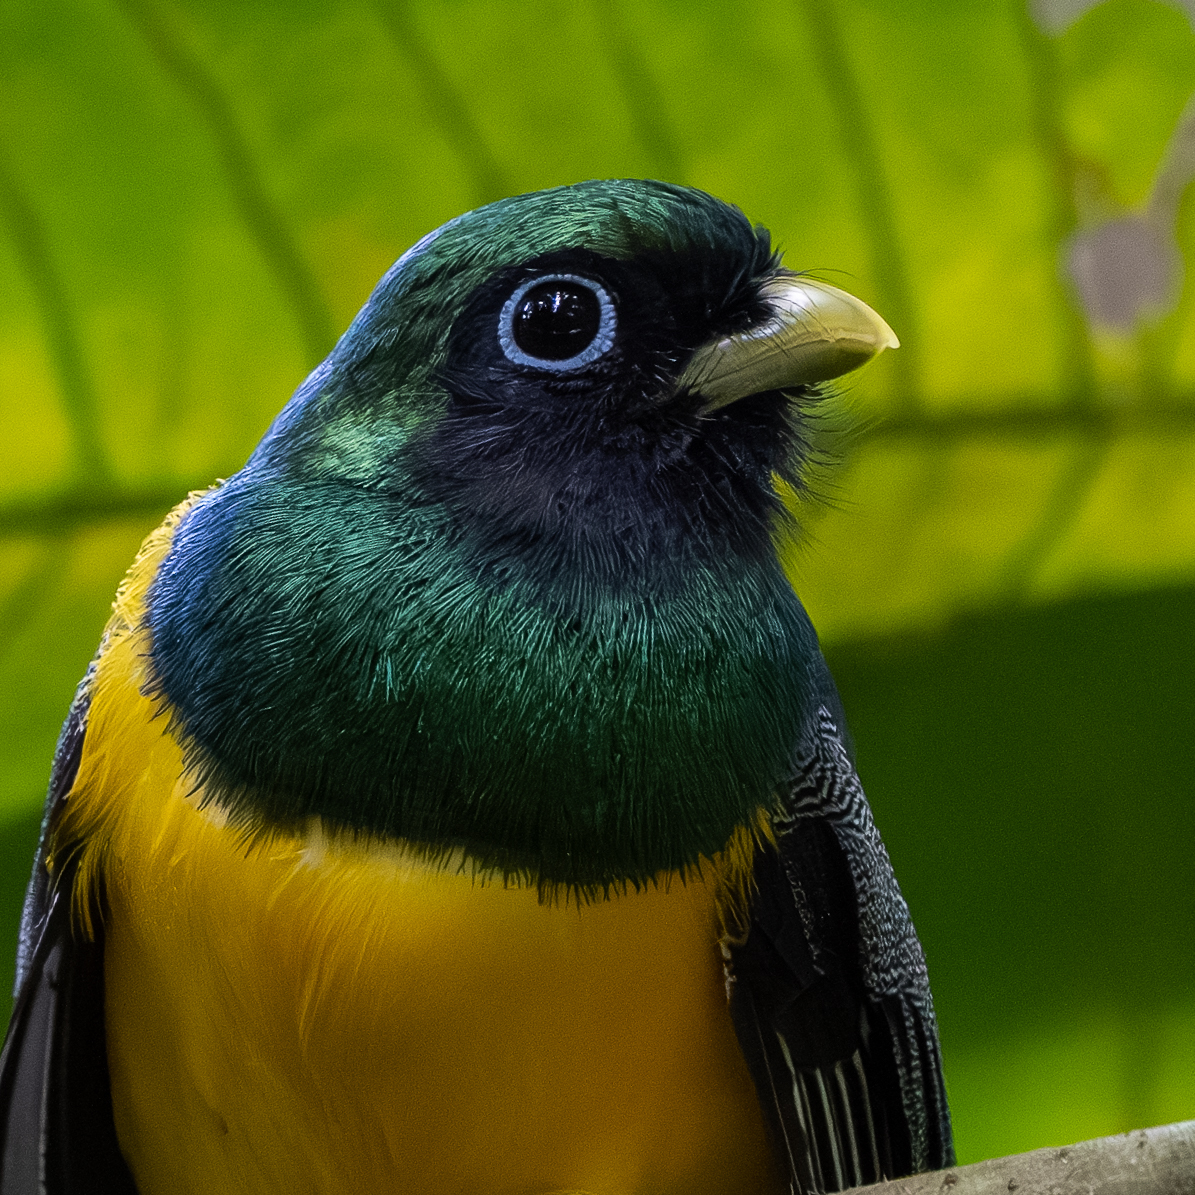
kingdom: Animalia
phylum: Chordata
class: Aves
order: Trogoniformes
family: Trogonidae
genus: Trogon
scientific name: Trogon rufus
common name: Black-throated trogon
